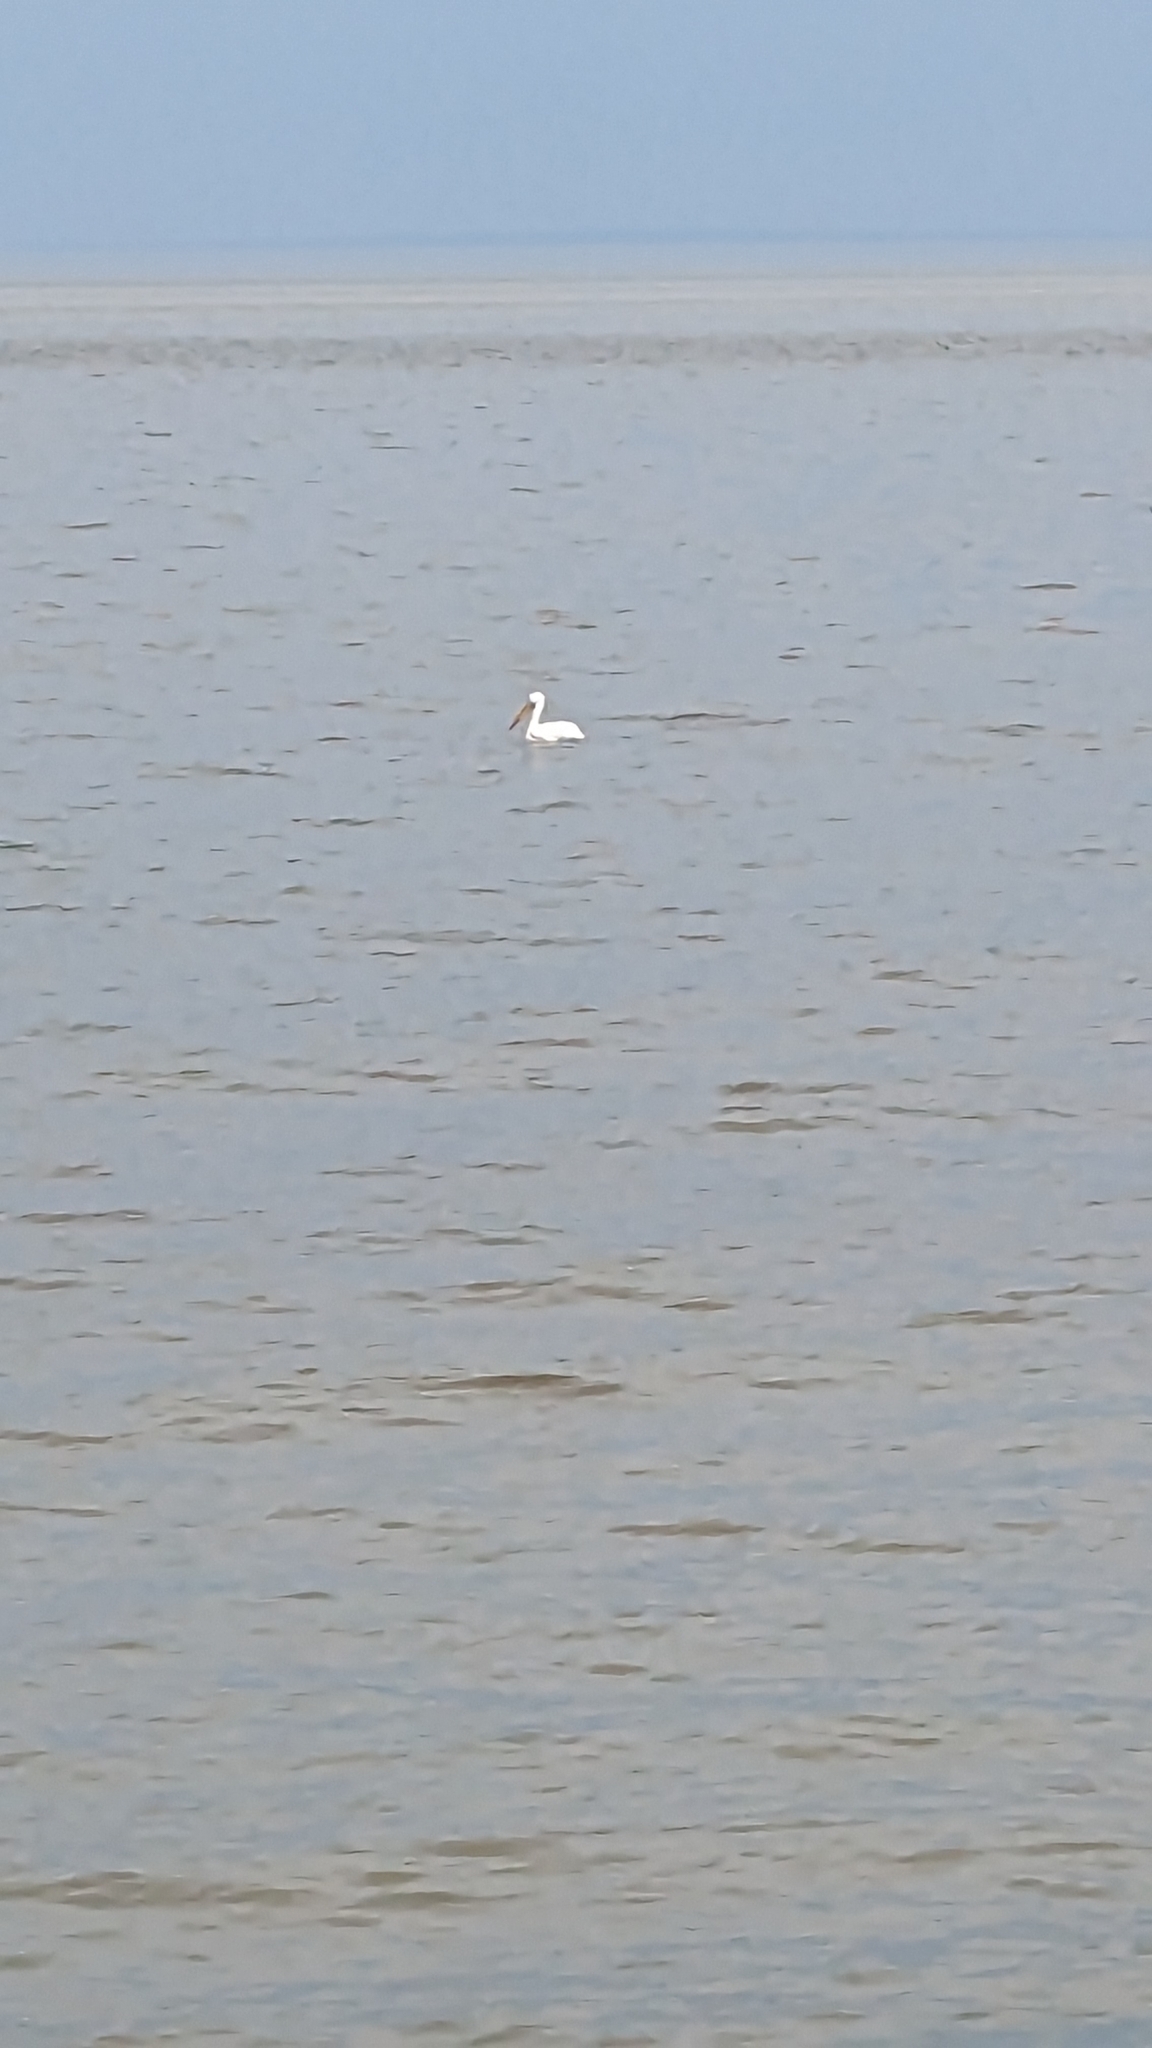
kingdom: Animalia
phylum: Chordata
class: Aves
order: Pelecaniformes
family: Pelecanidae
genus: Pelecanus
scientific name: Pelecanus erythrorhynchos
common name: American white pelican
